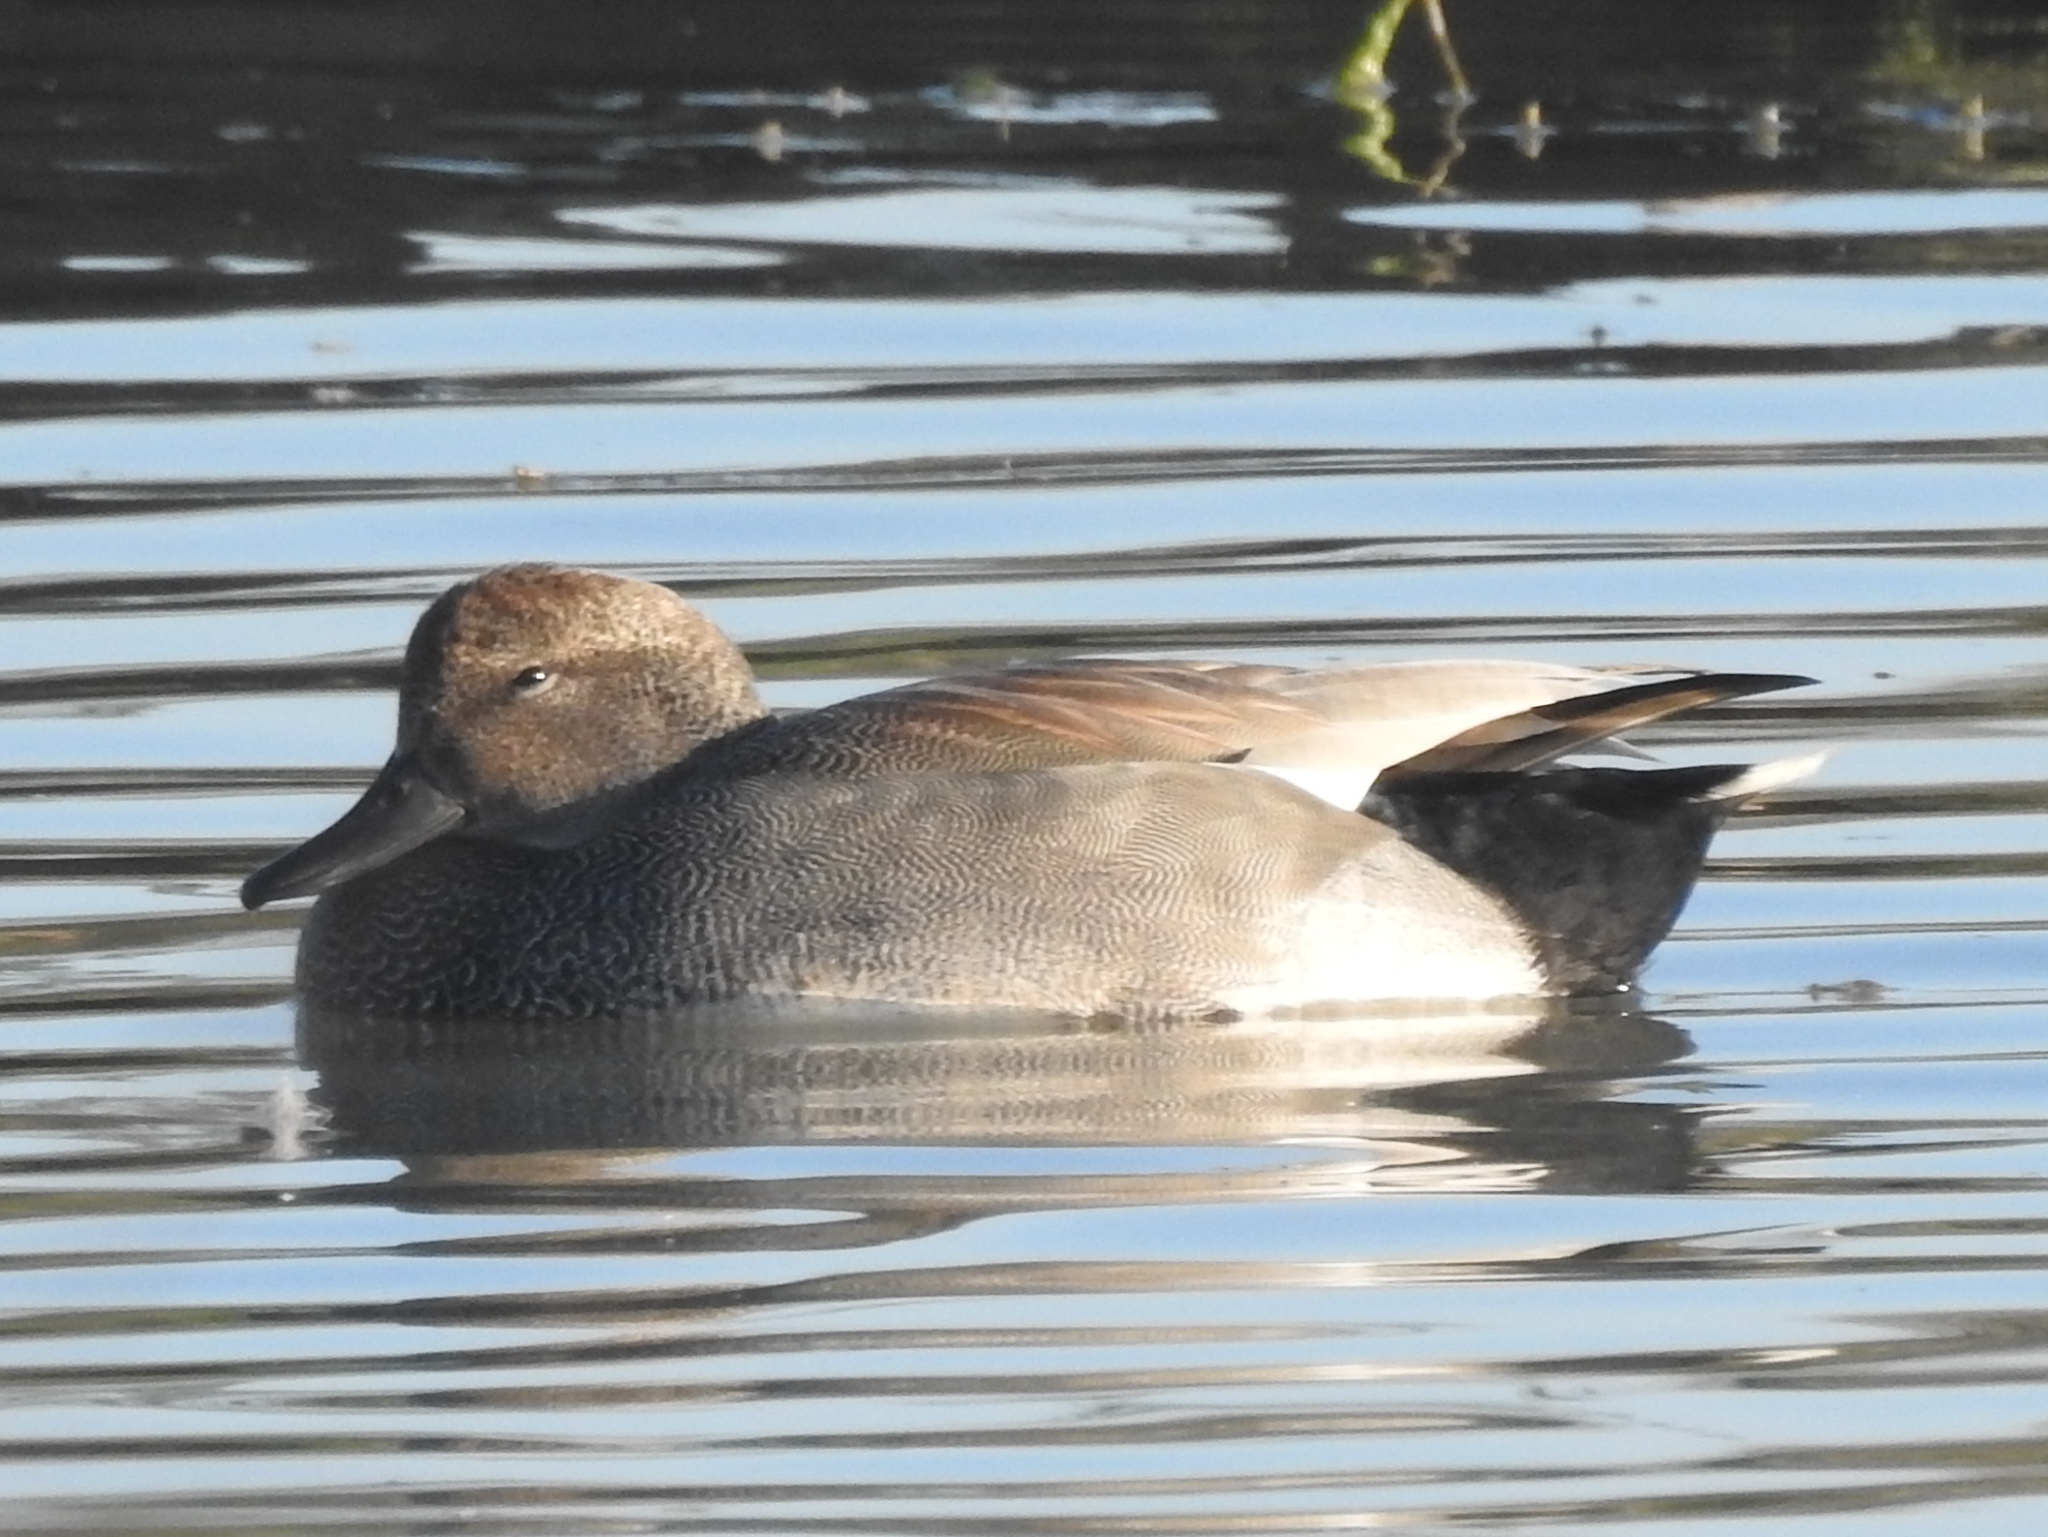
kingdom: Animalia
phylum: Chordata
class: Aves
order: Anseriformes
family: Anatidae
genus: Mareca
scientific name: Mareca strepera
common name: Gadwall
